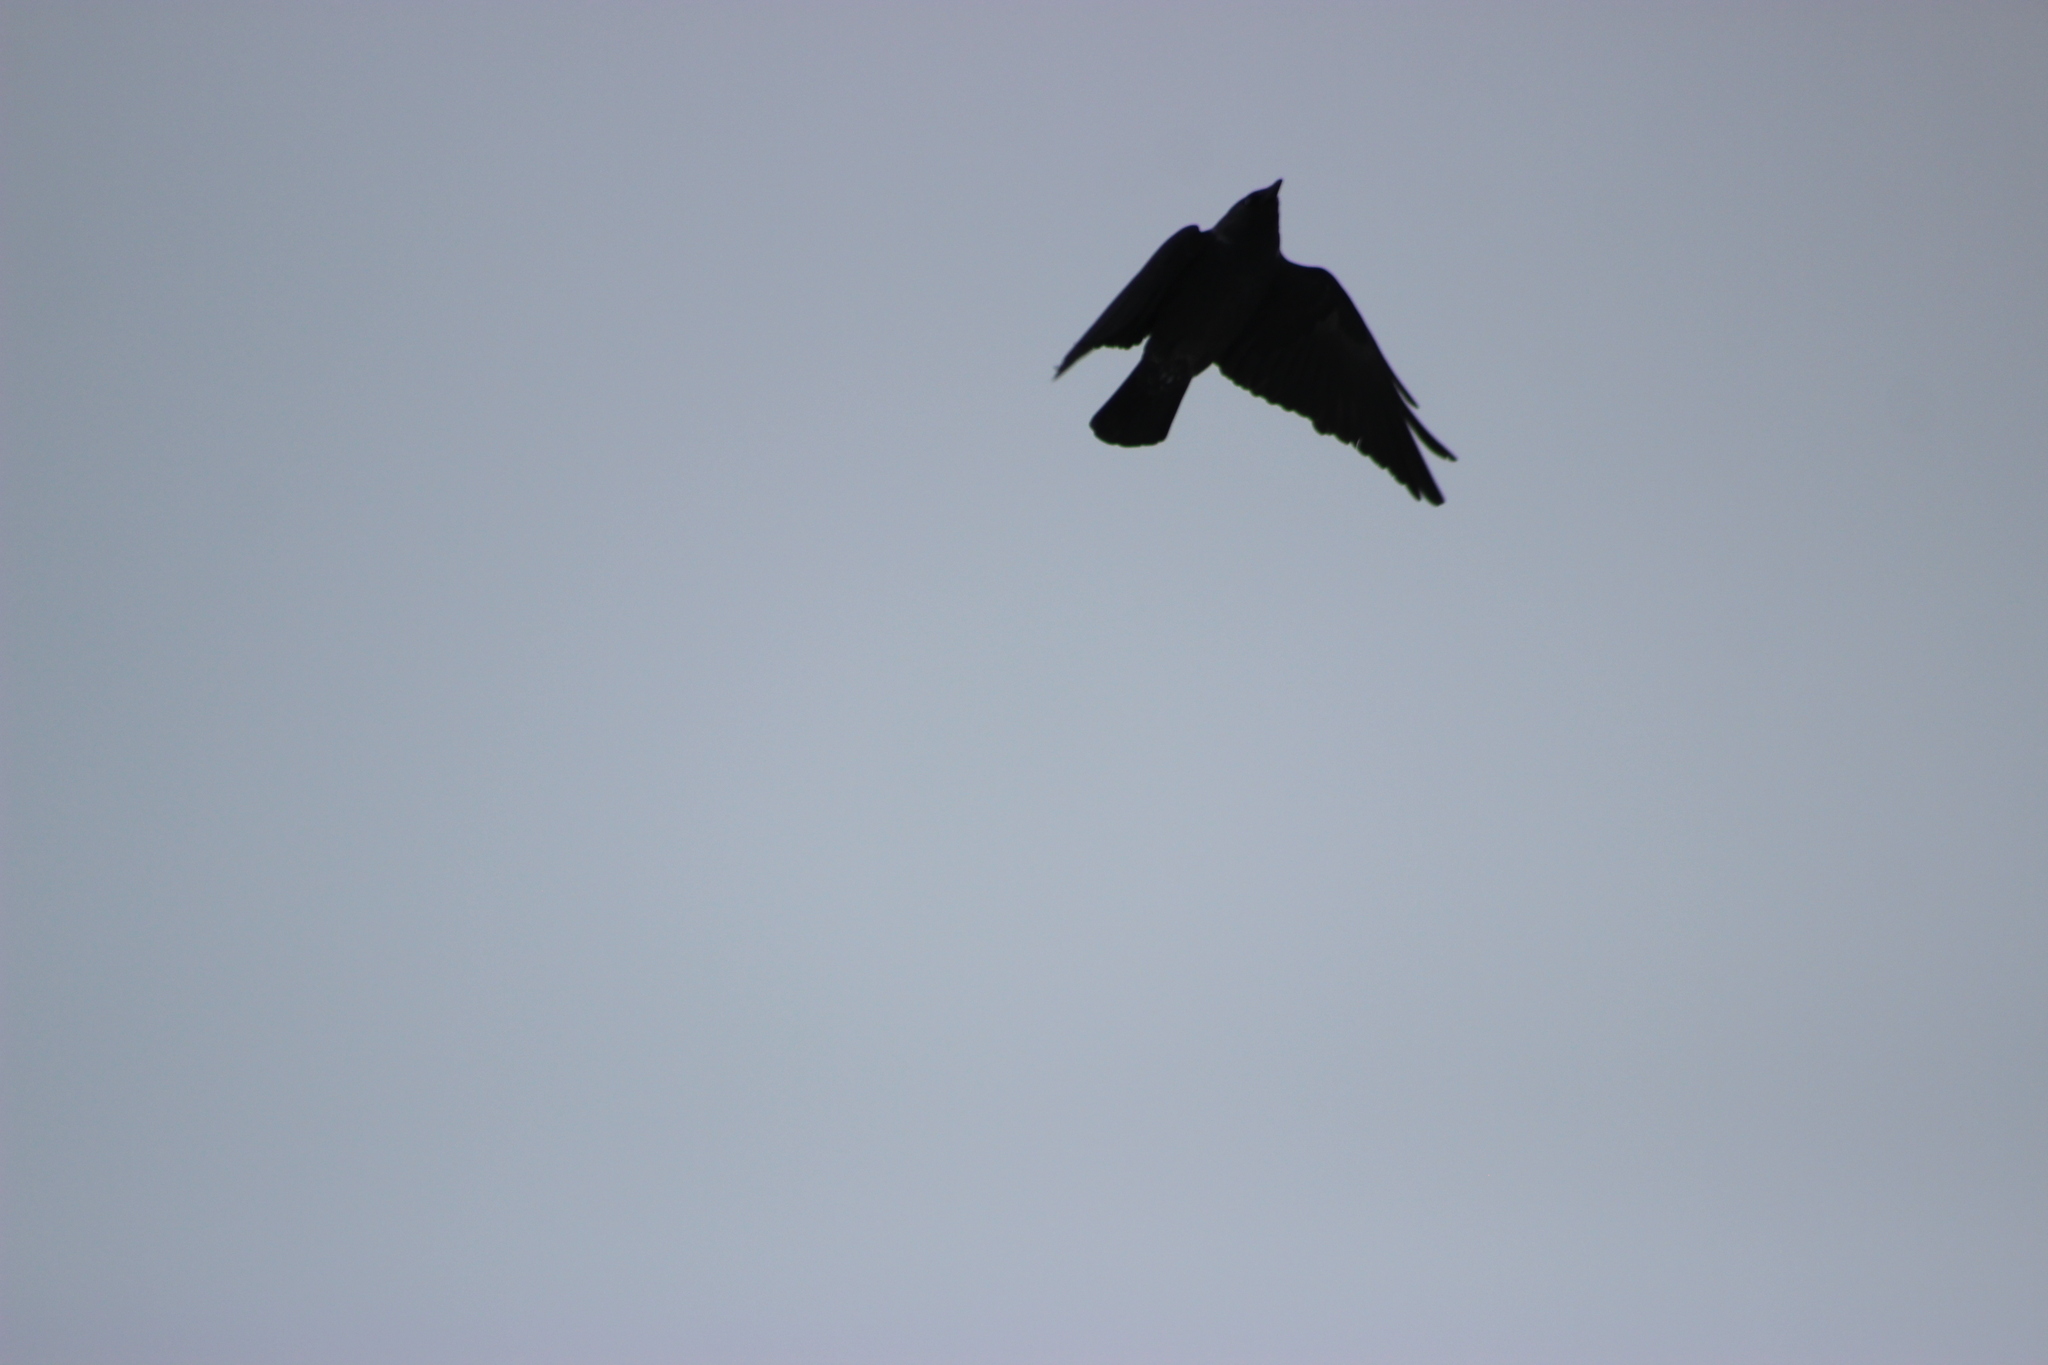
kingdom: Animalia
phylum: Chordata
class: Aves
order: Passeriformes
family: Corvidae
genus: Coloeus
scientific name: Coloeus monedula
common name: Western jackdaw
